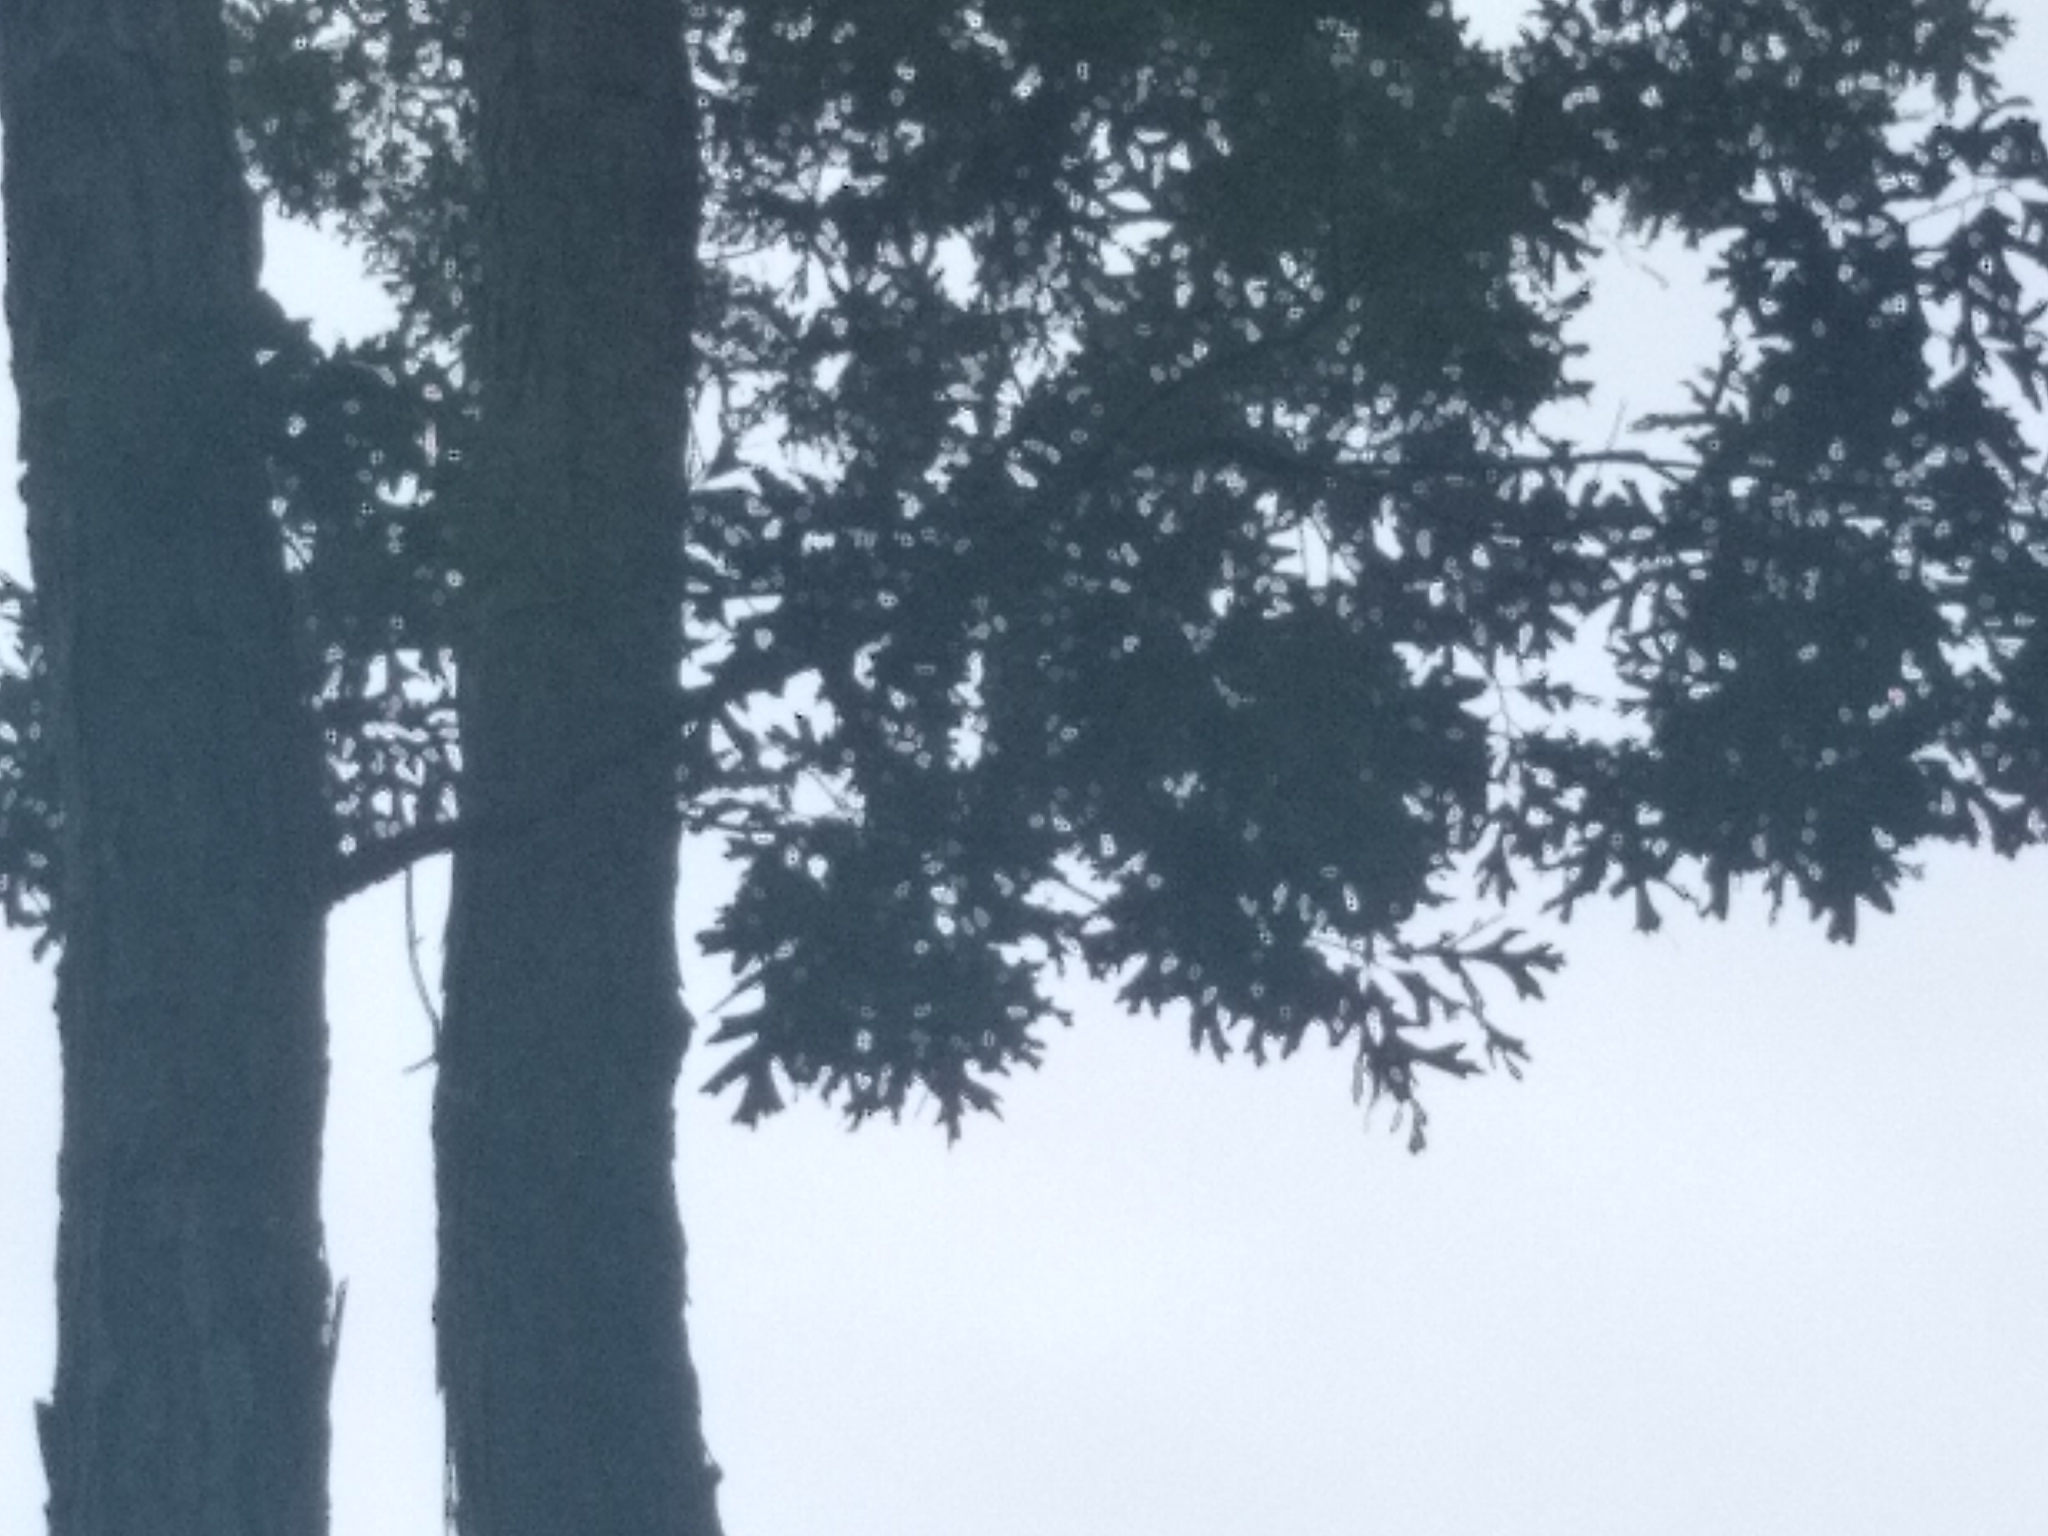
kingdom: Plantae
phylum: Tracheophyta
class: Magnoliopsida
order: Fagales
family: Fagaceae
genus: Quercus
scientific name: Quercus falcata
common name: Southern red oak
